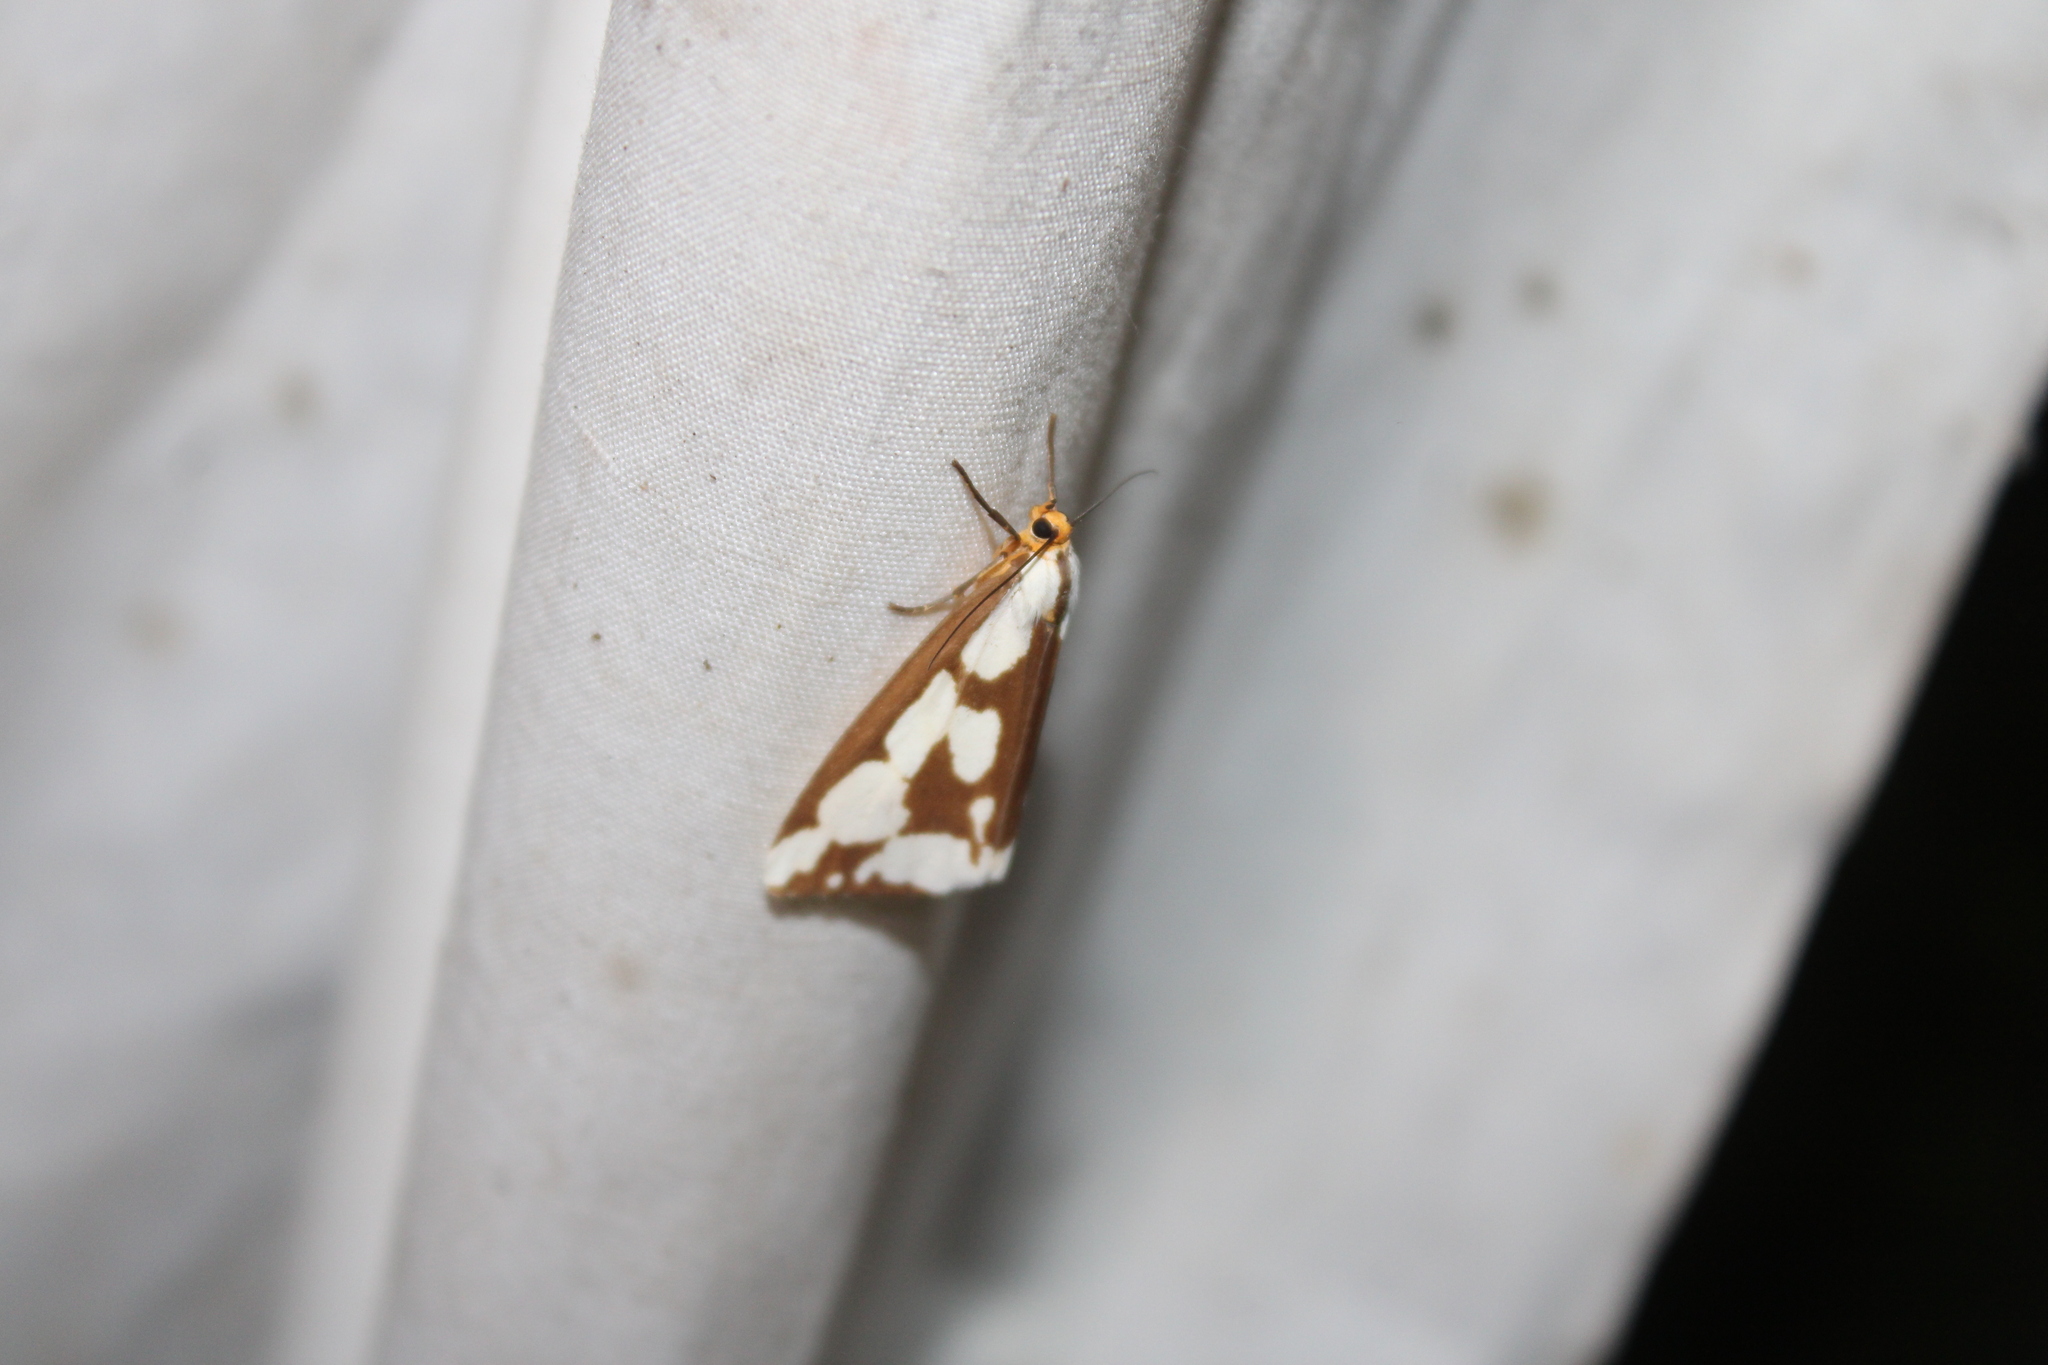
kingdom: Animalia
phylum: Arthropoda
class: Insecta
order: Lepidoptera
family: Erebidae
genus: Haploa
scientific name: Haploa confusa
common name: Confused haploa moth
